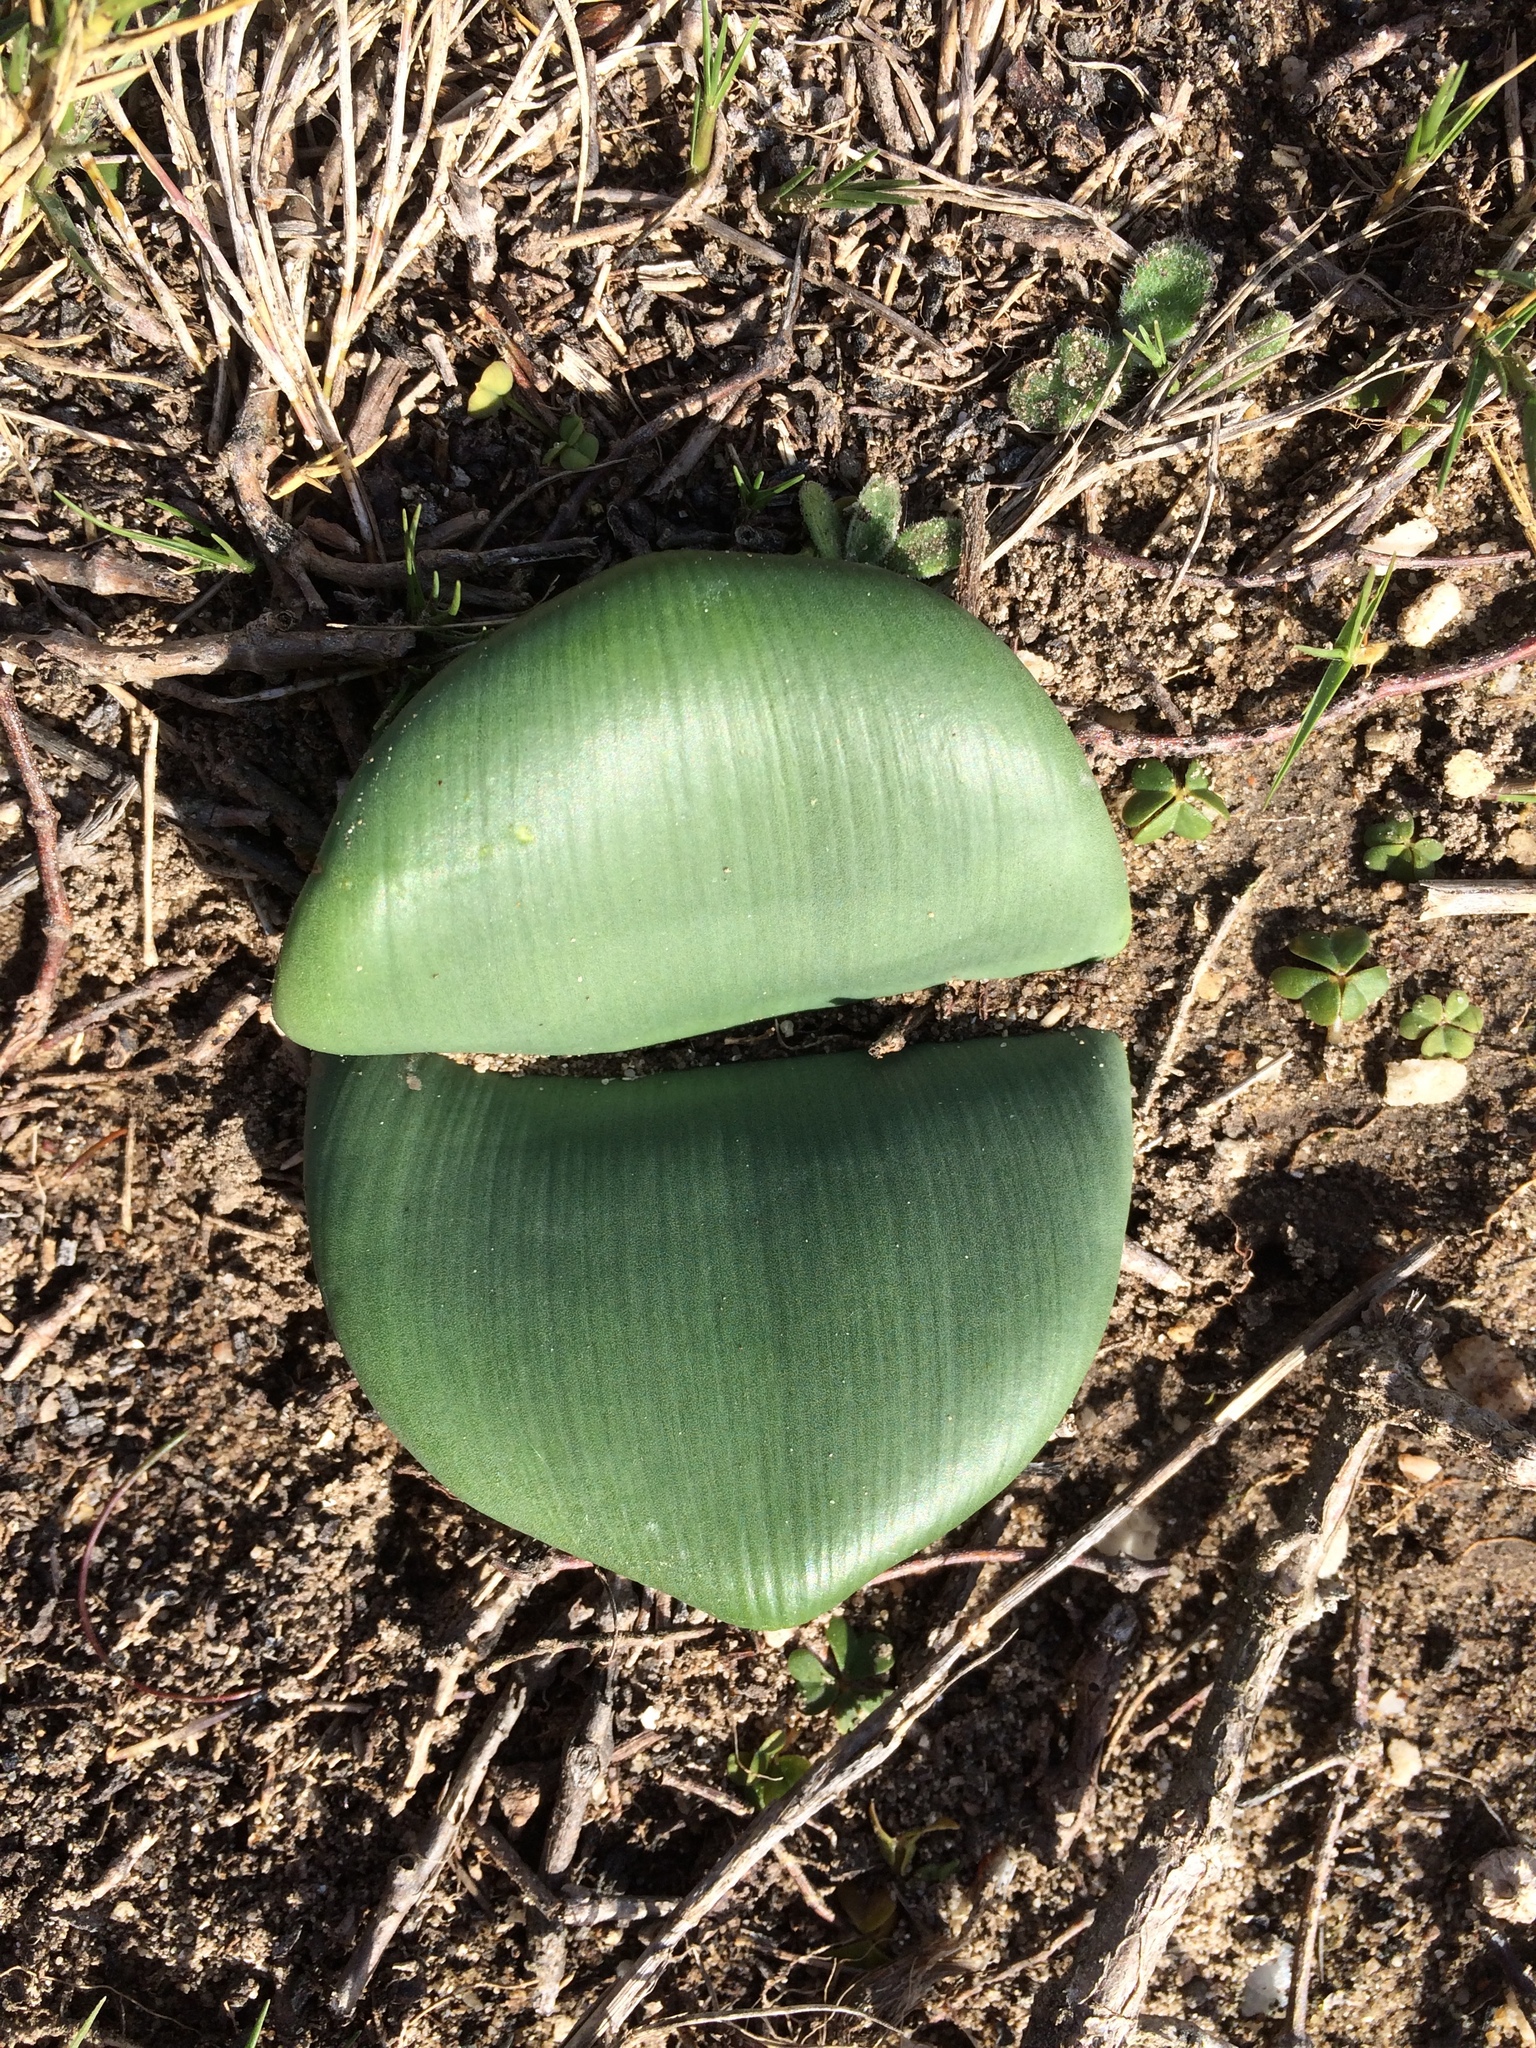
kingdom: Plantae
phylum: Tracheophyta
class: Liliopsida
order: Asparagales
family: Amaryllidaceae
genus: Haemanthus
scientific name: Haemanthus coccineus
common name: Cape-tulip
